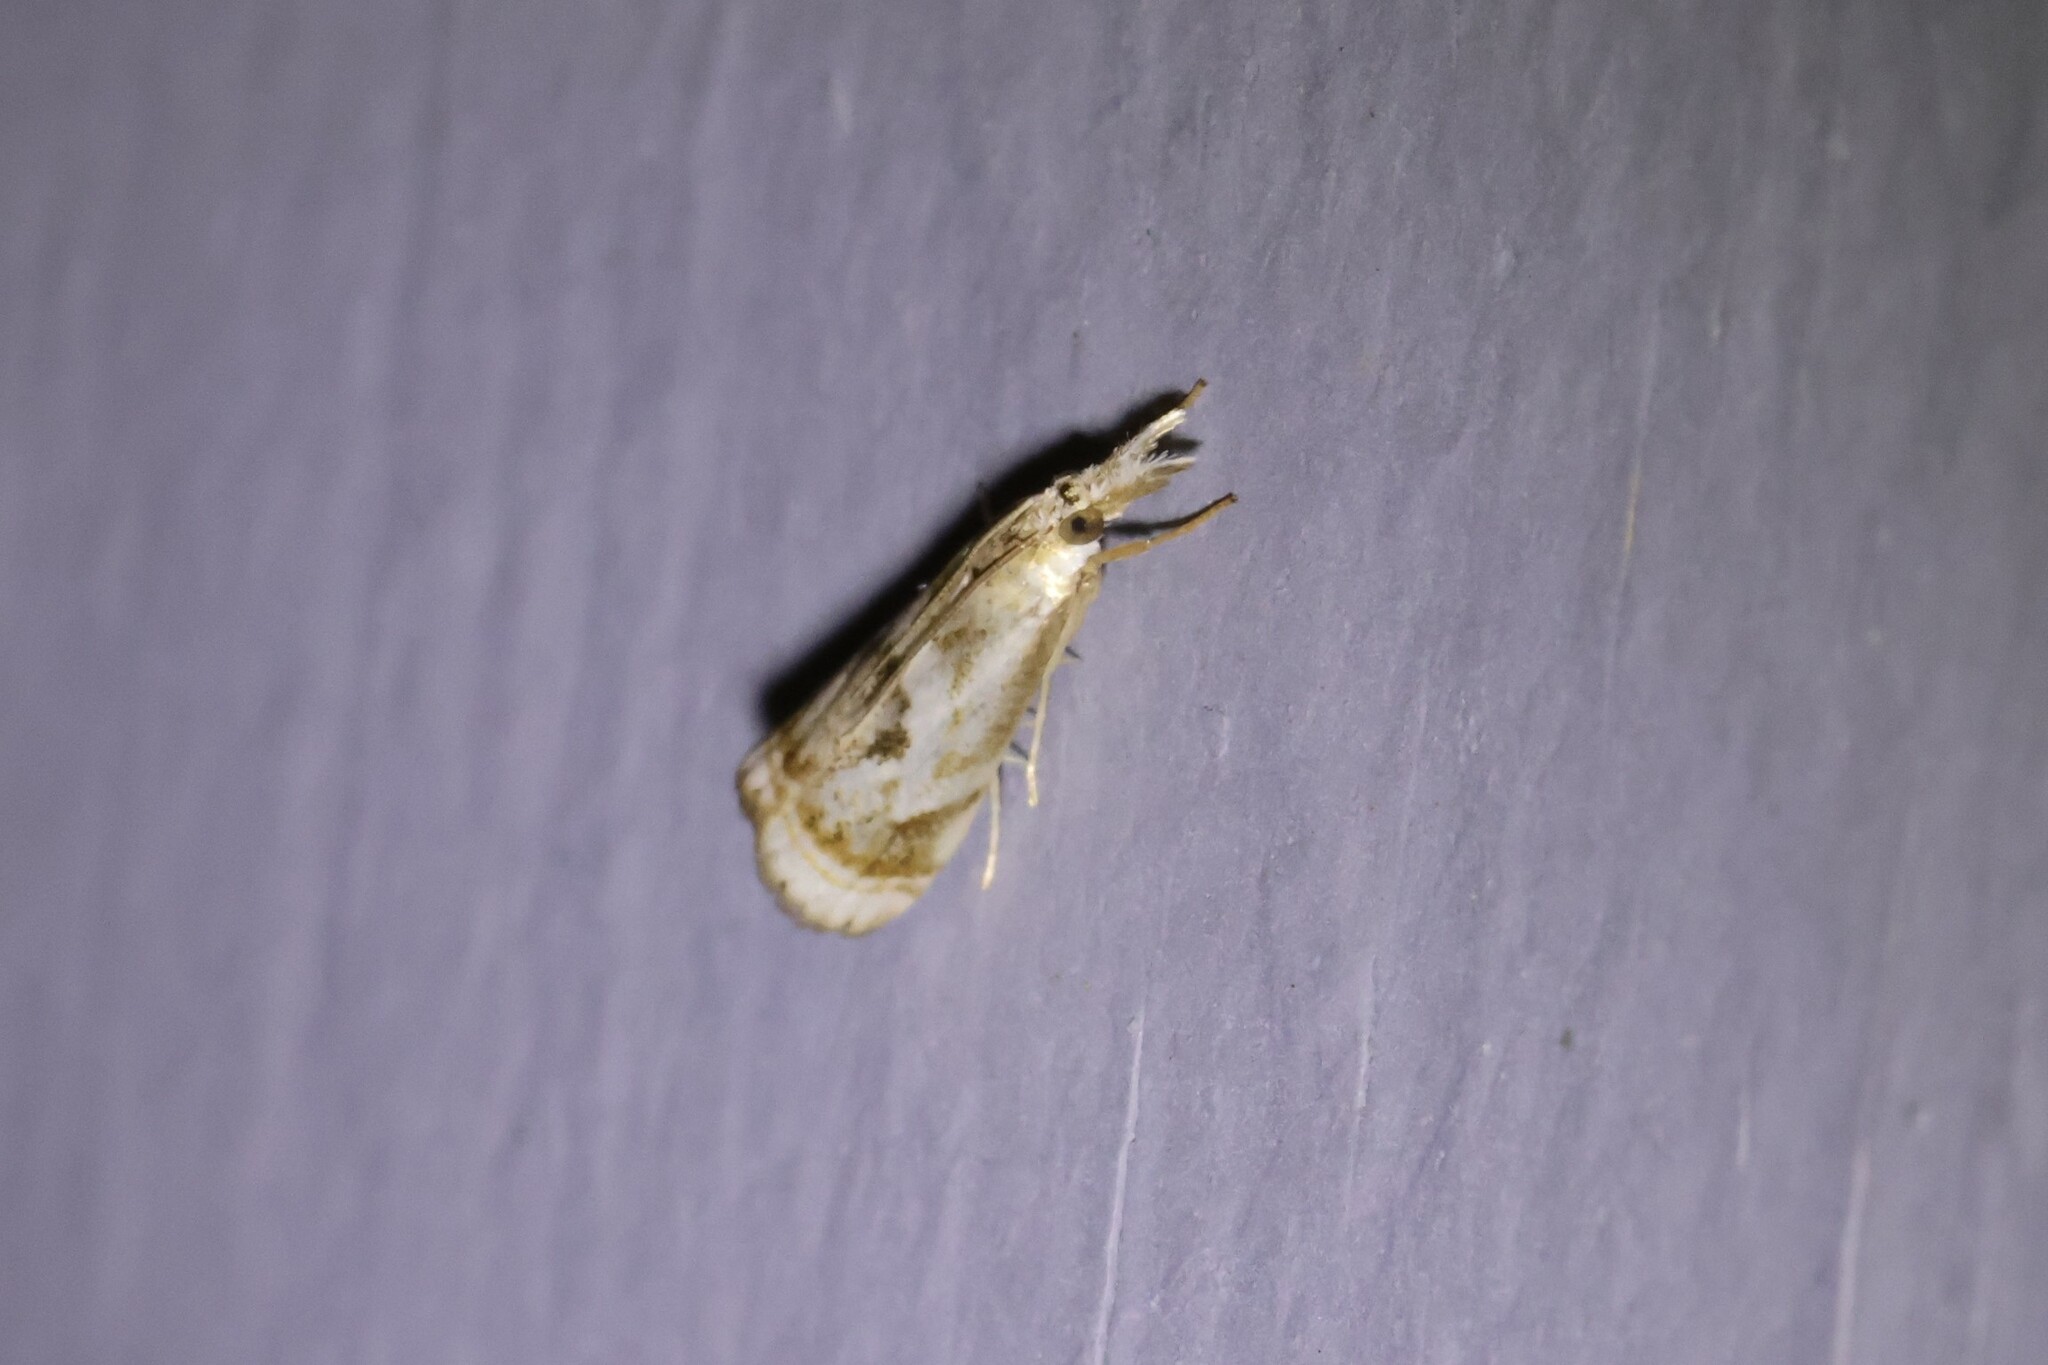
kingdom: Animalia
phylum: Arthropoda
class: Insecta
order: Lepidoptera
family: Crambidae
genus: Microcrambus
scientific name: Microcrambus elegans
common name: Elegant grass-veneer
